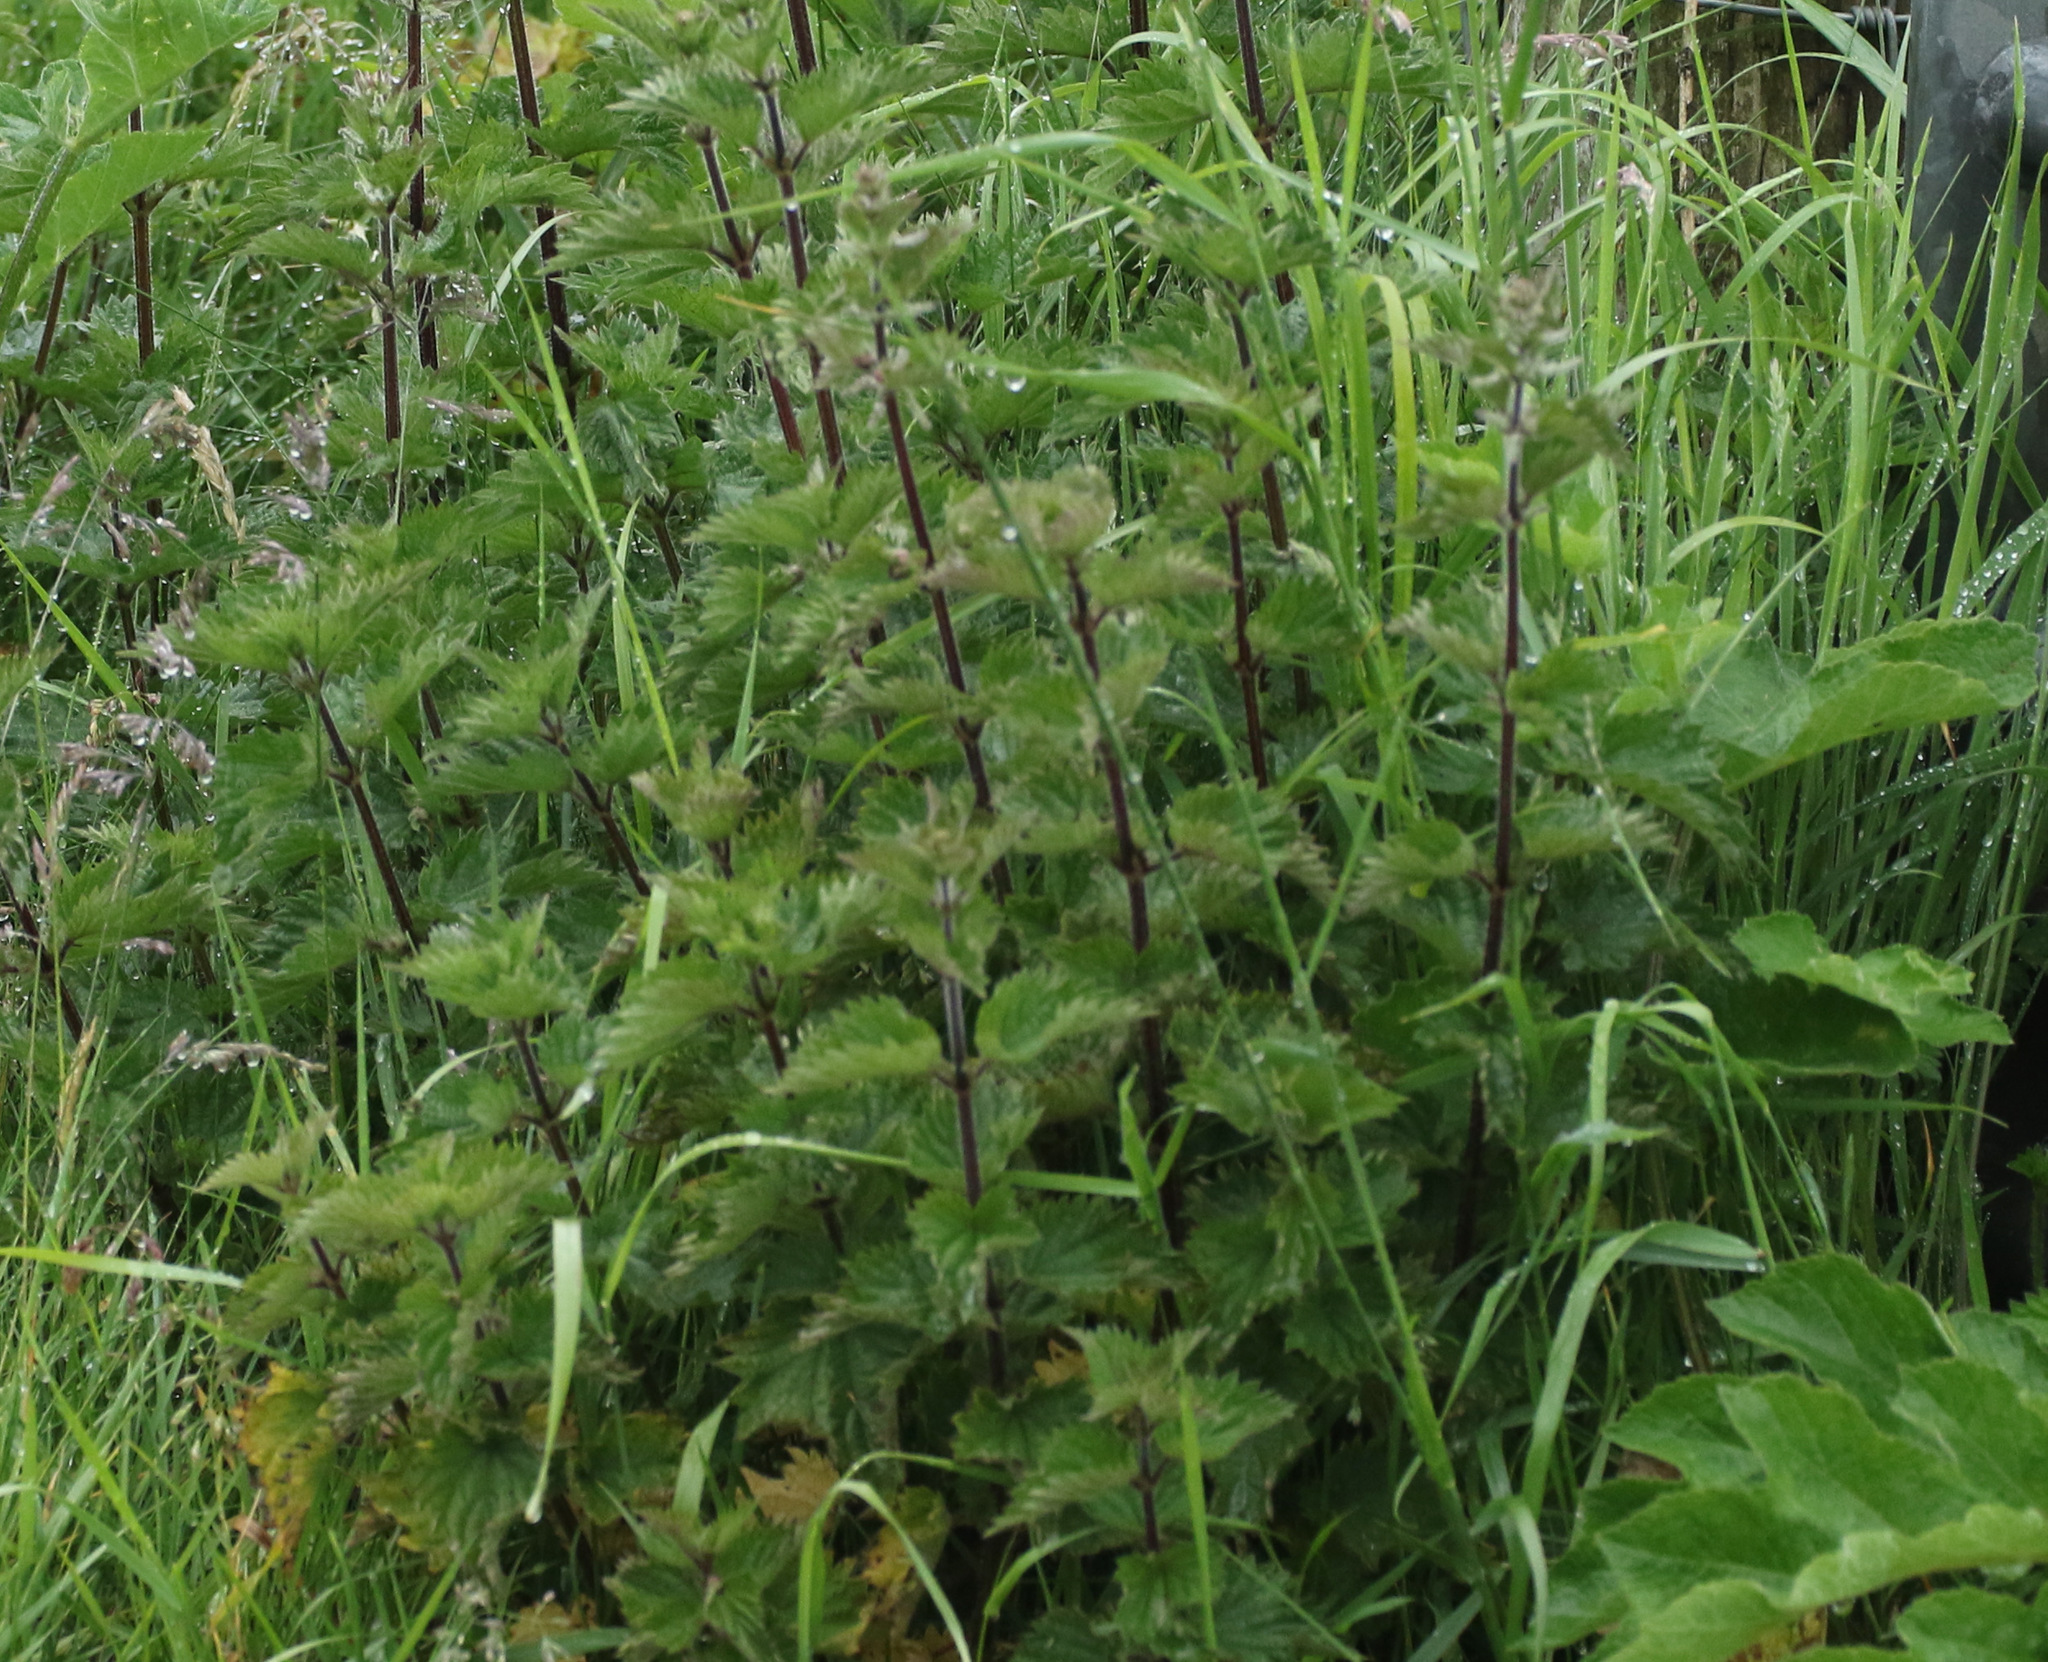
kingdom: Plantae
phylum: Tracheophyta
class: Magnoliopsida
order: Rosales
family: Urticaceae
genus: Urtica
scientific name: Urtica dioica
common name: Common nettle
